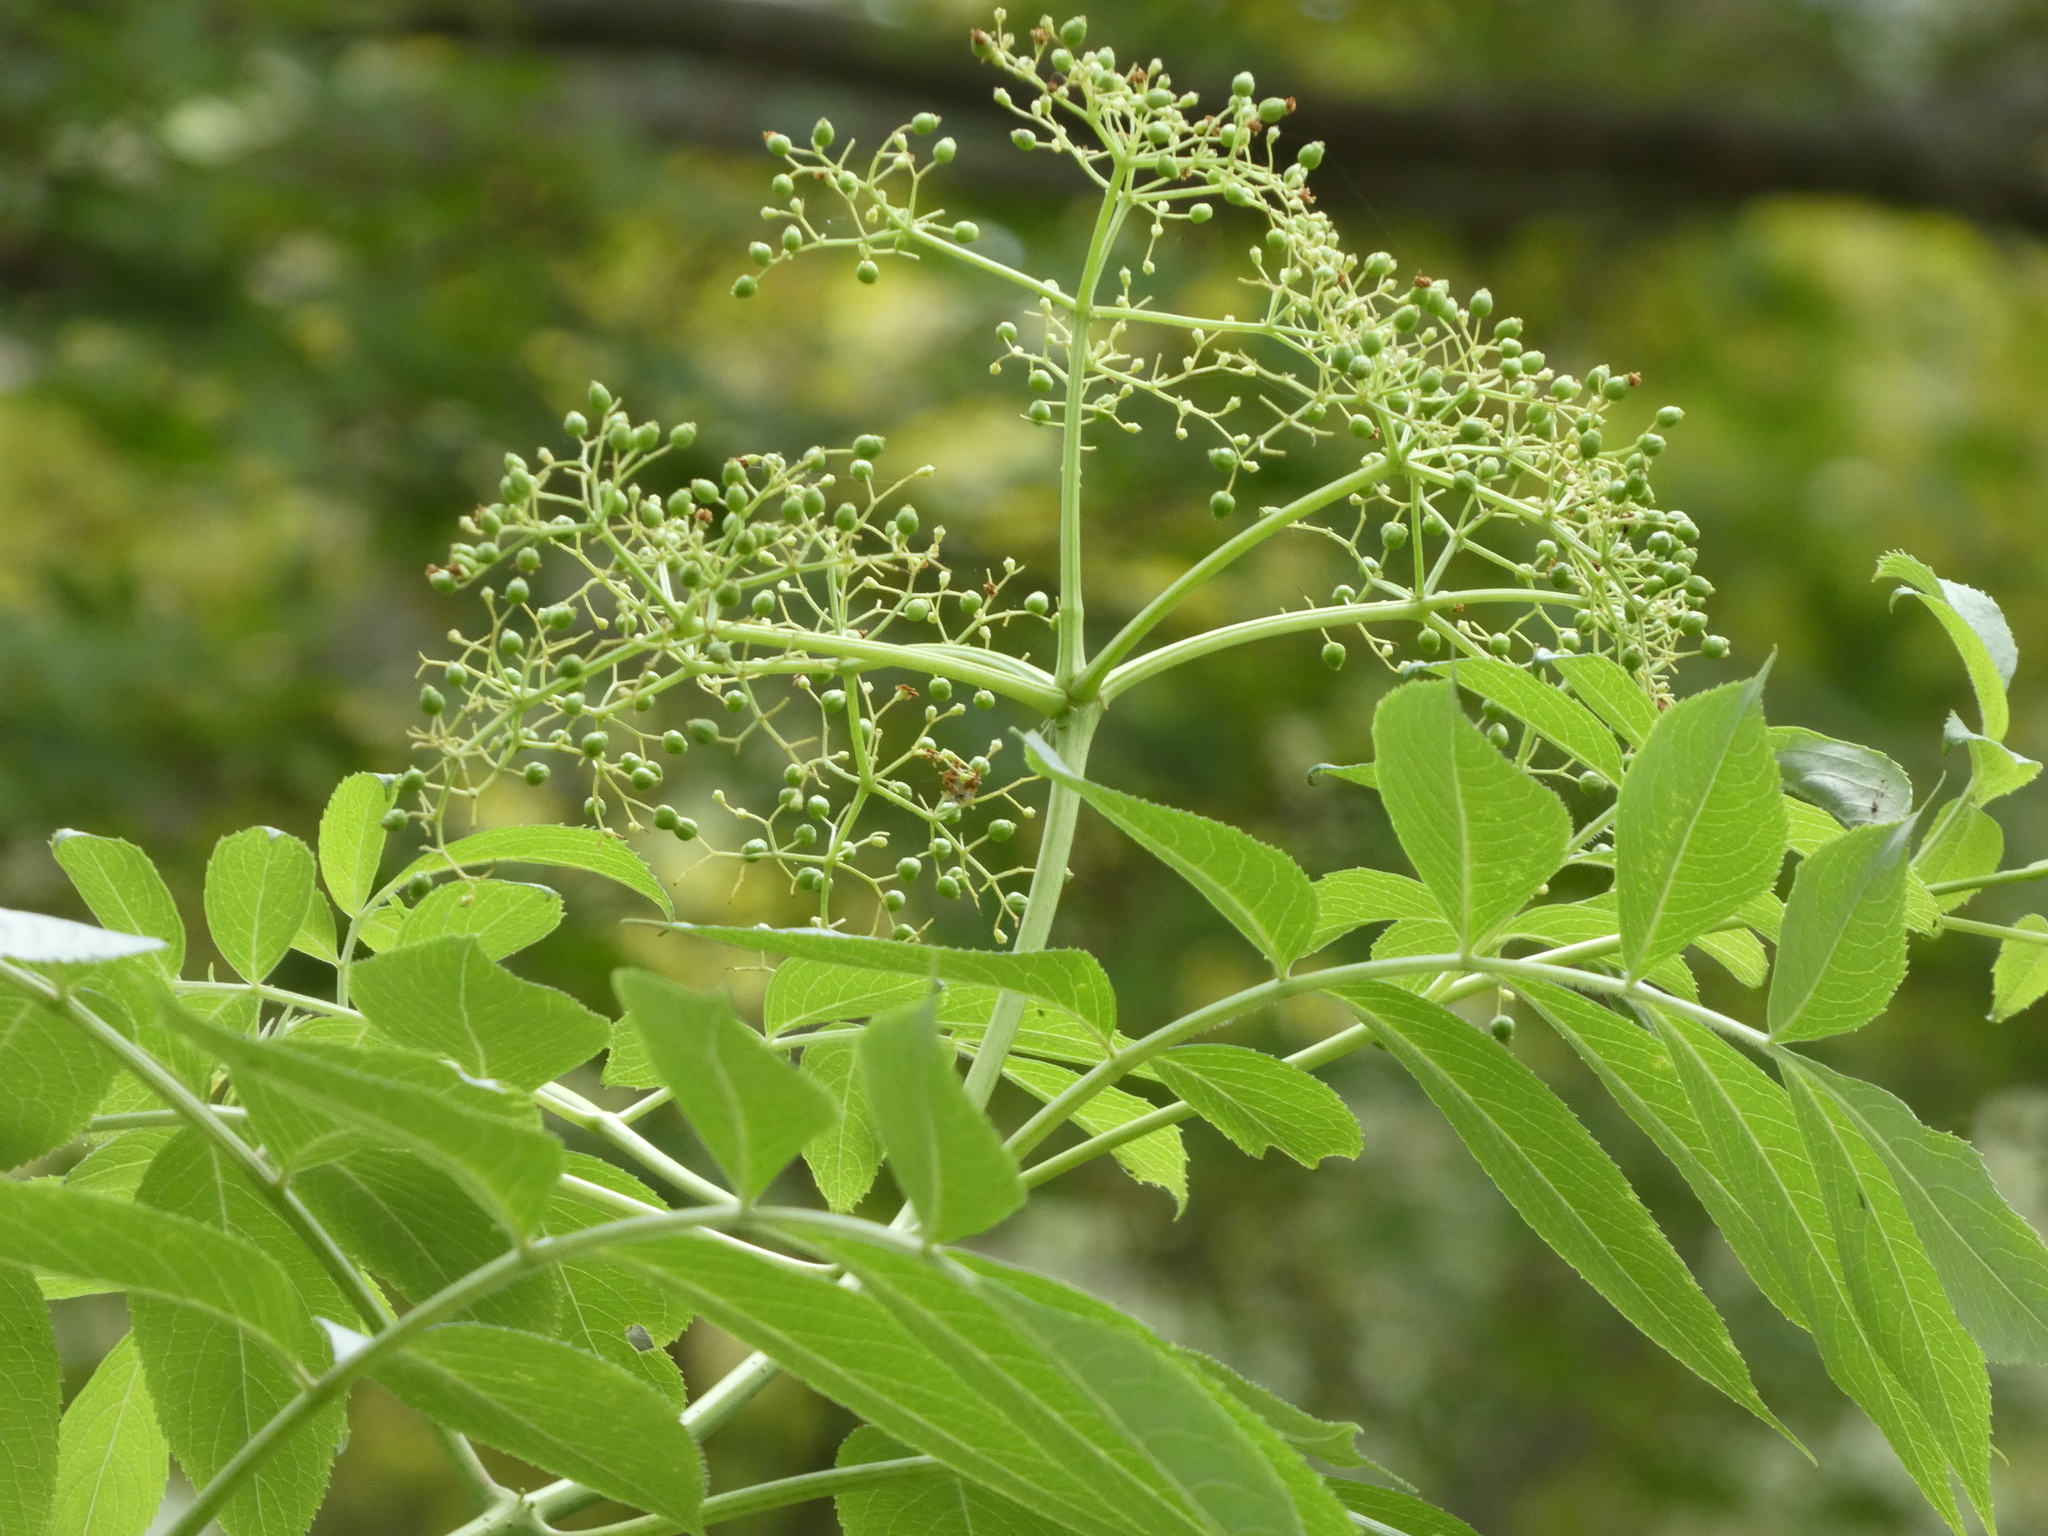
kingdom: Plantae
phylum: Tracheophyta
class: Magnoliopsida
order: Dipsacales
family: Viburnaceae
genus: Sambucus
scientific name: Sambucus canadensis
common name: American elder
